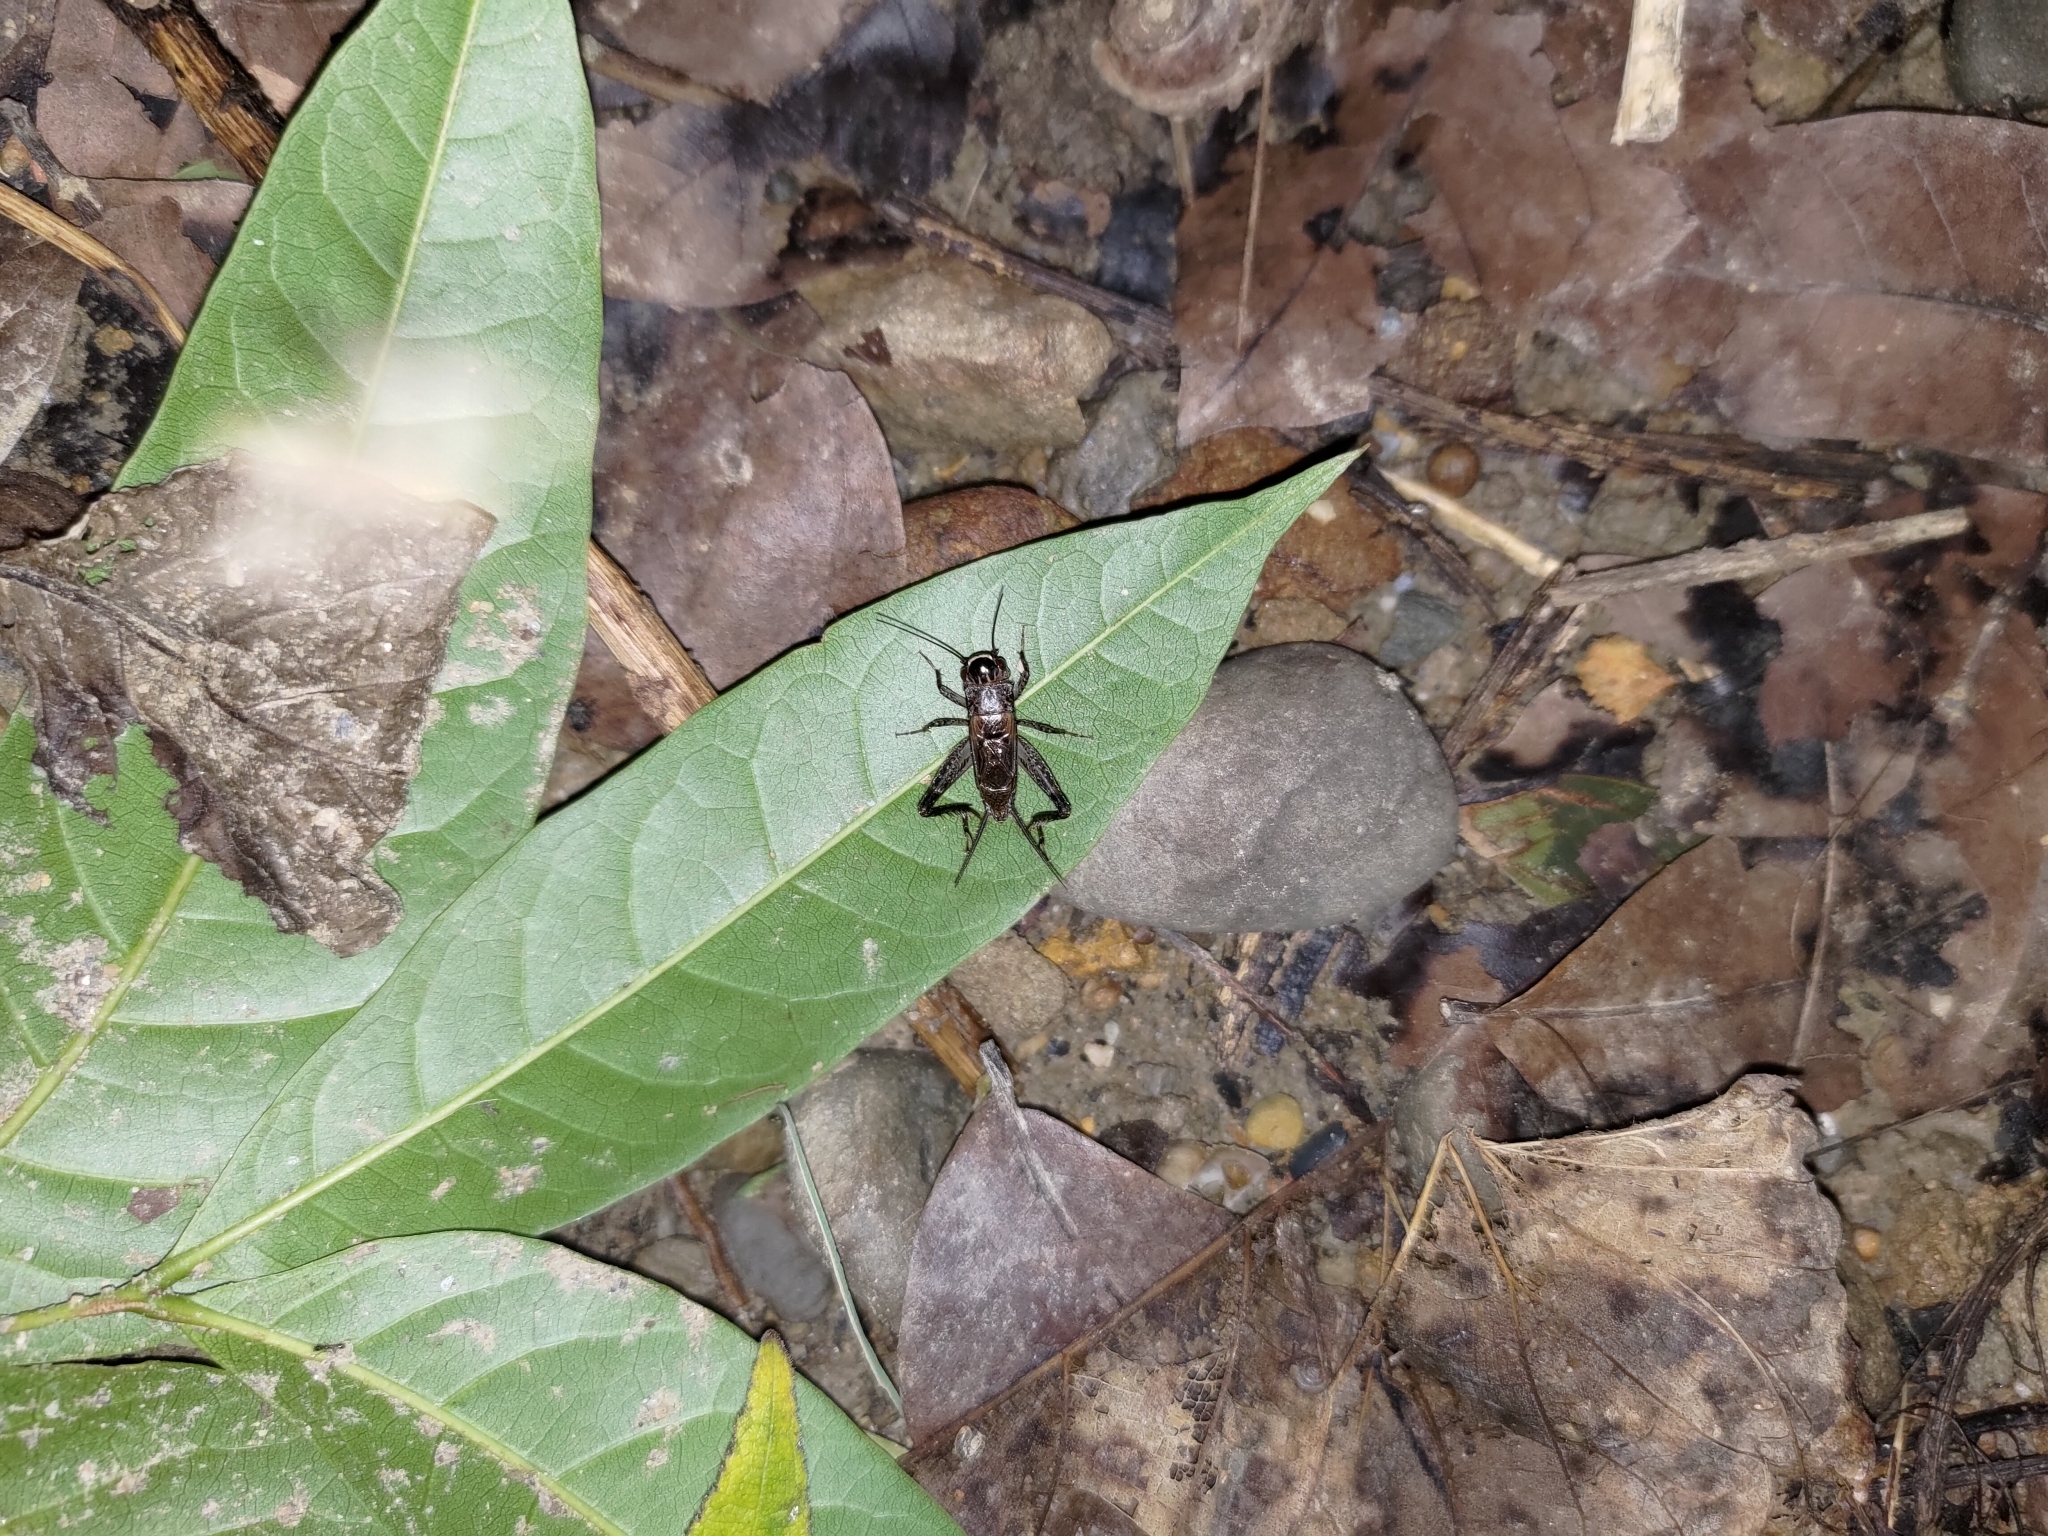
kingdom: Animalia
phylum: Arthropoda
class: Insecta
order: Orthoptera
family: Gryllidae
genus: Loxoblemmus
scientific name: Loxoblemmus equestris
